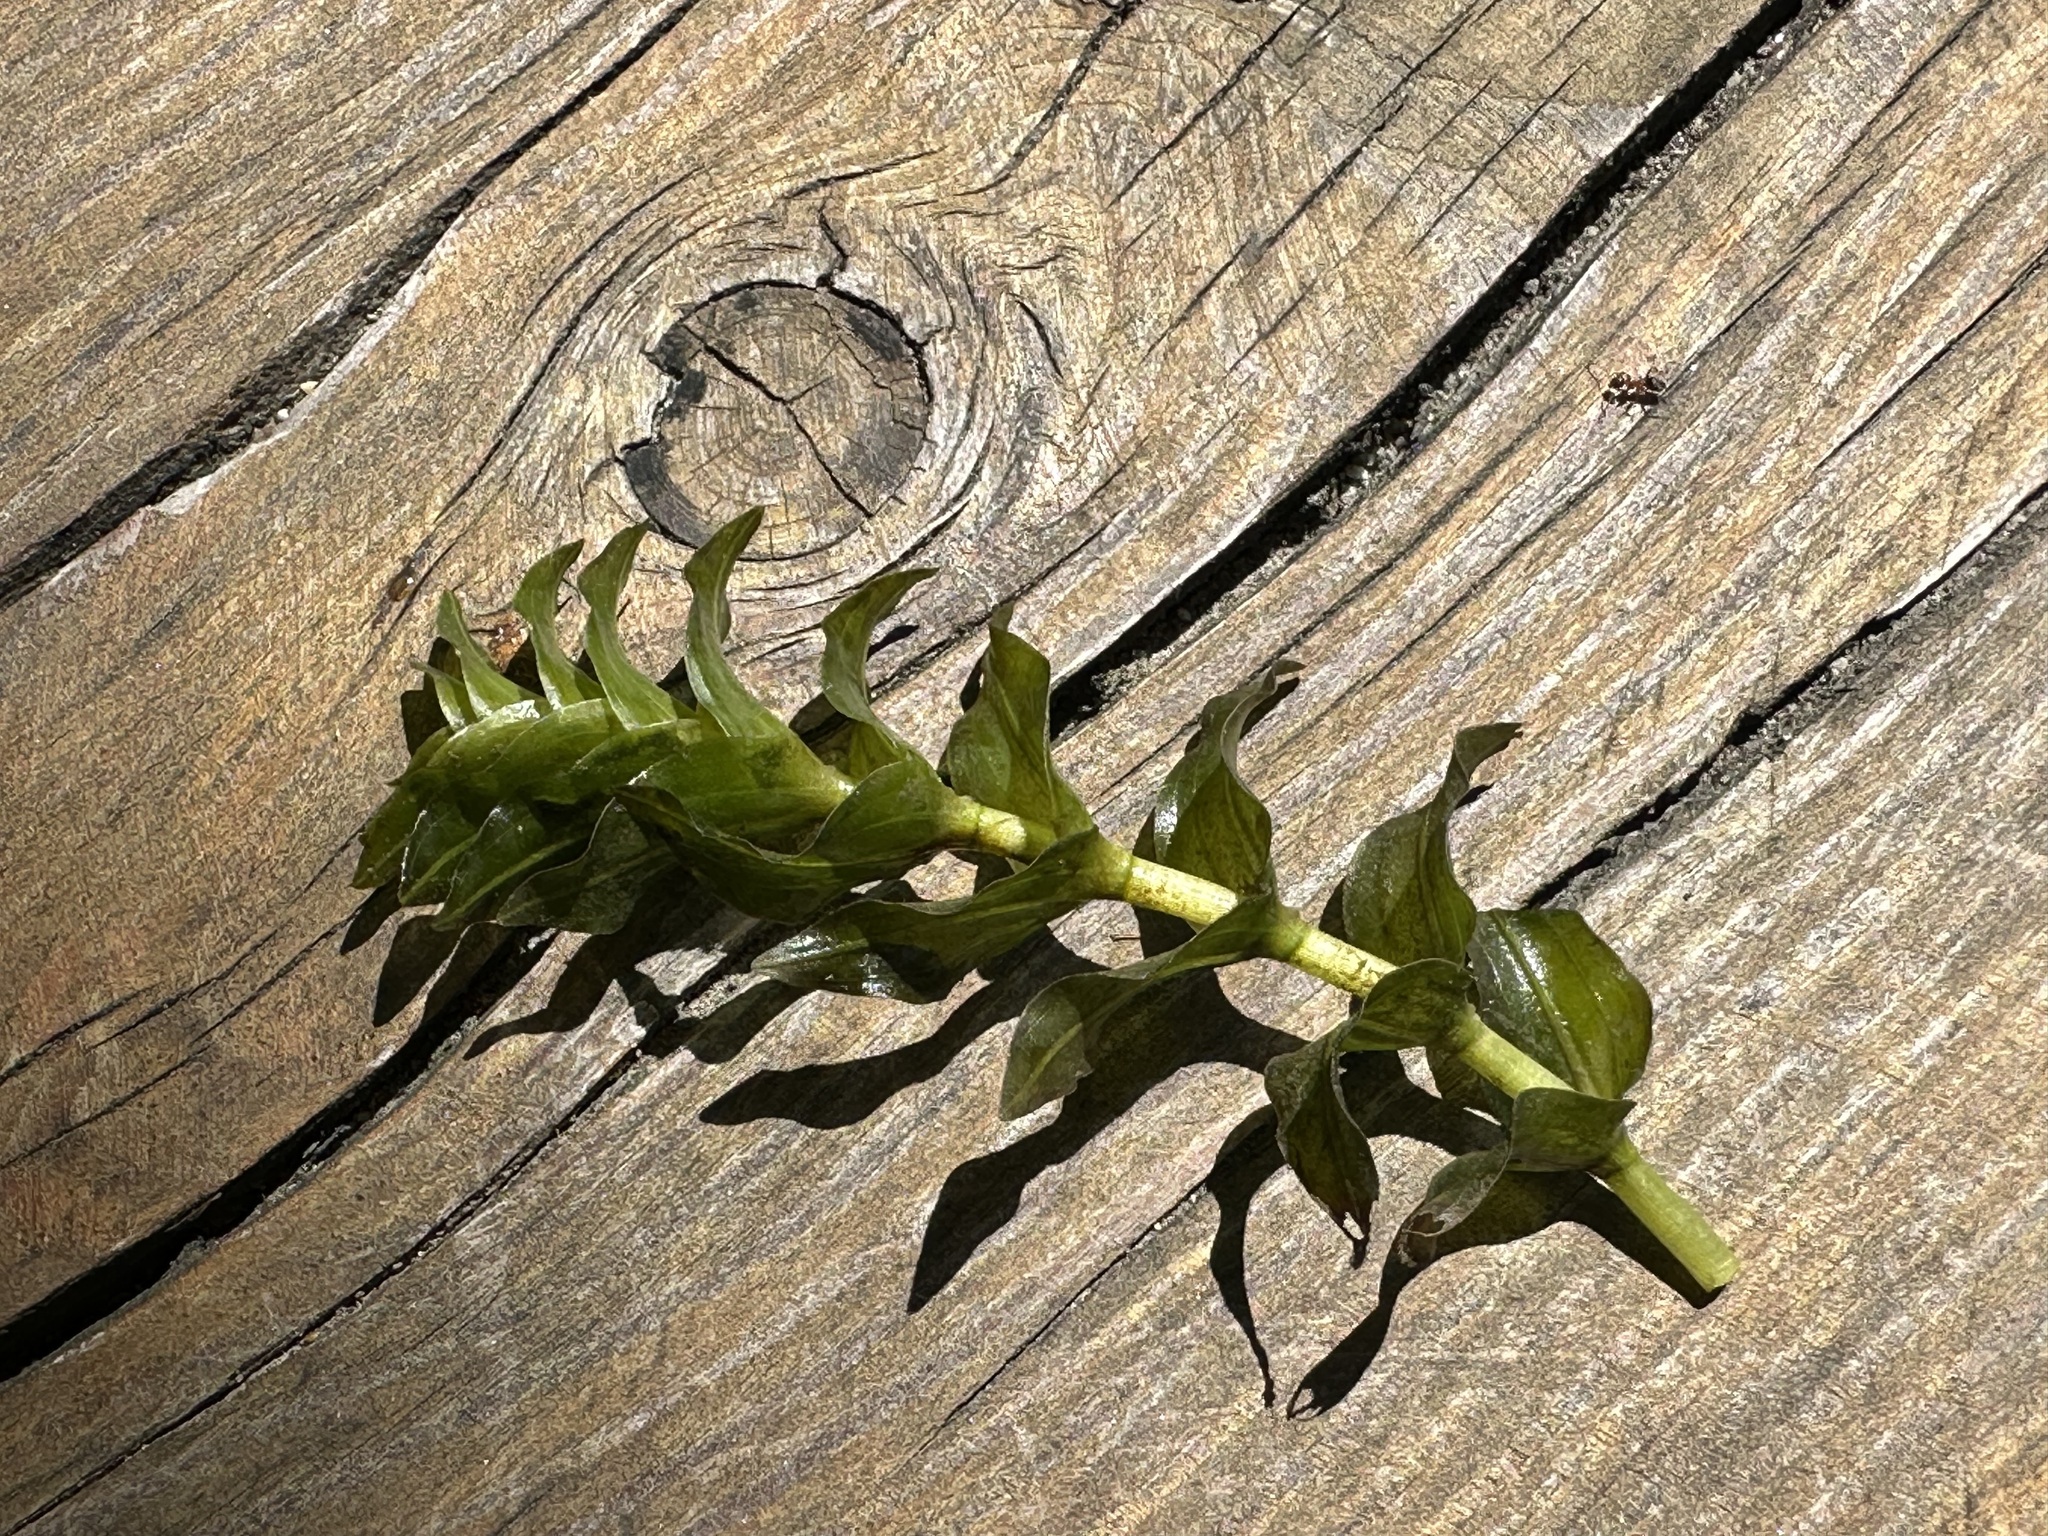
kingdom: Plantae
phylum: Tracheophyta
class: Liliopsida
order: Alismatales
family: Potamogetonaceae
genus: Groenlandia
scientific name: Groenlandia densa
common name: Opposite-leaved pondweed
